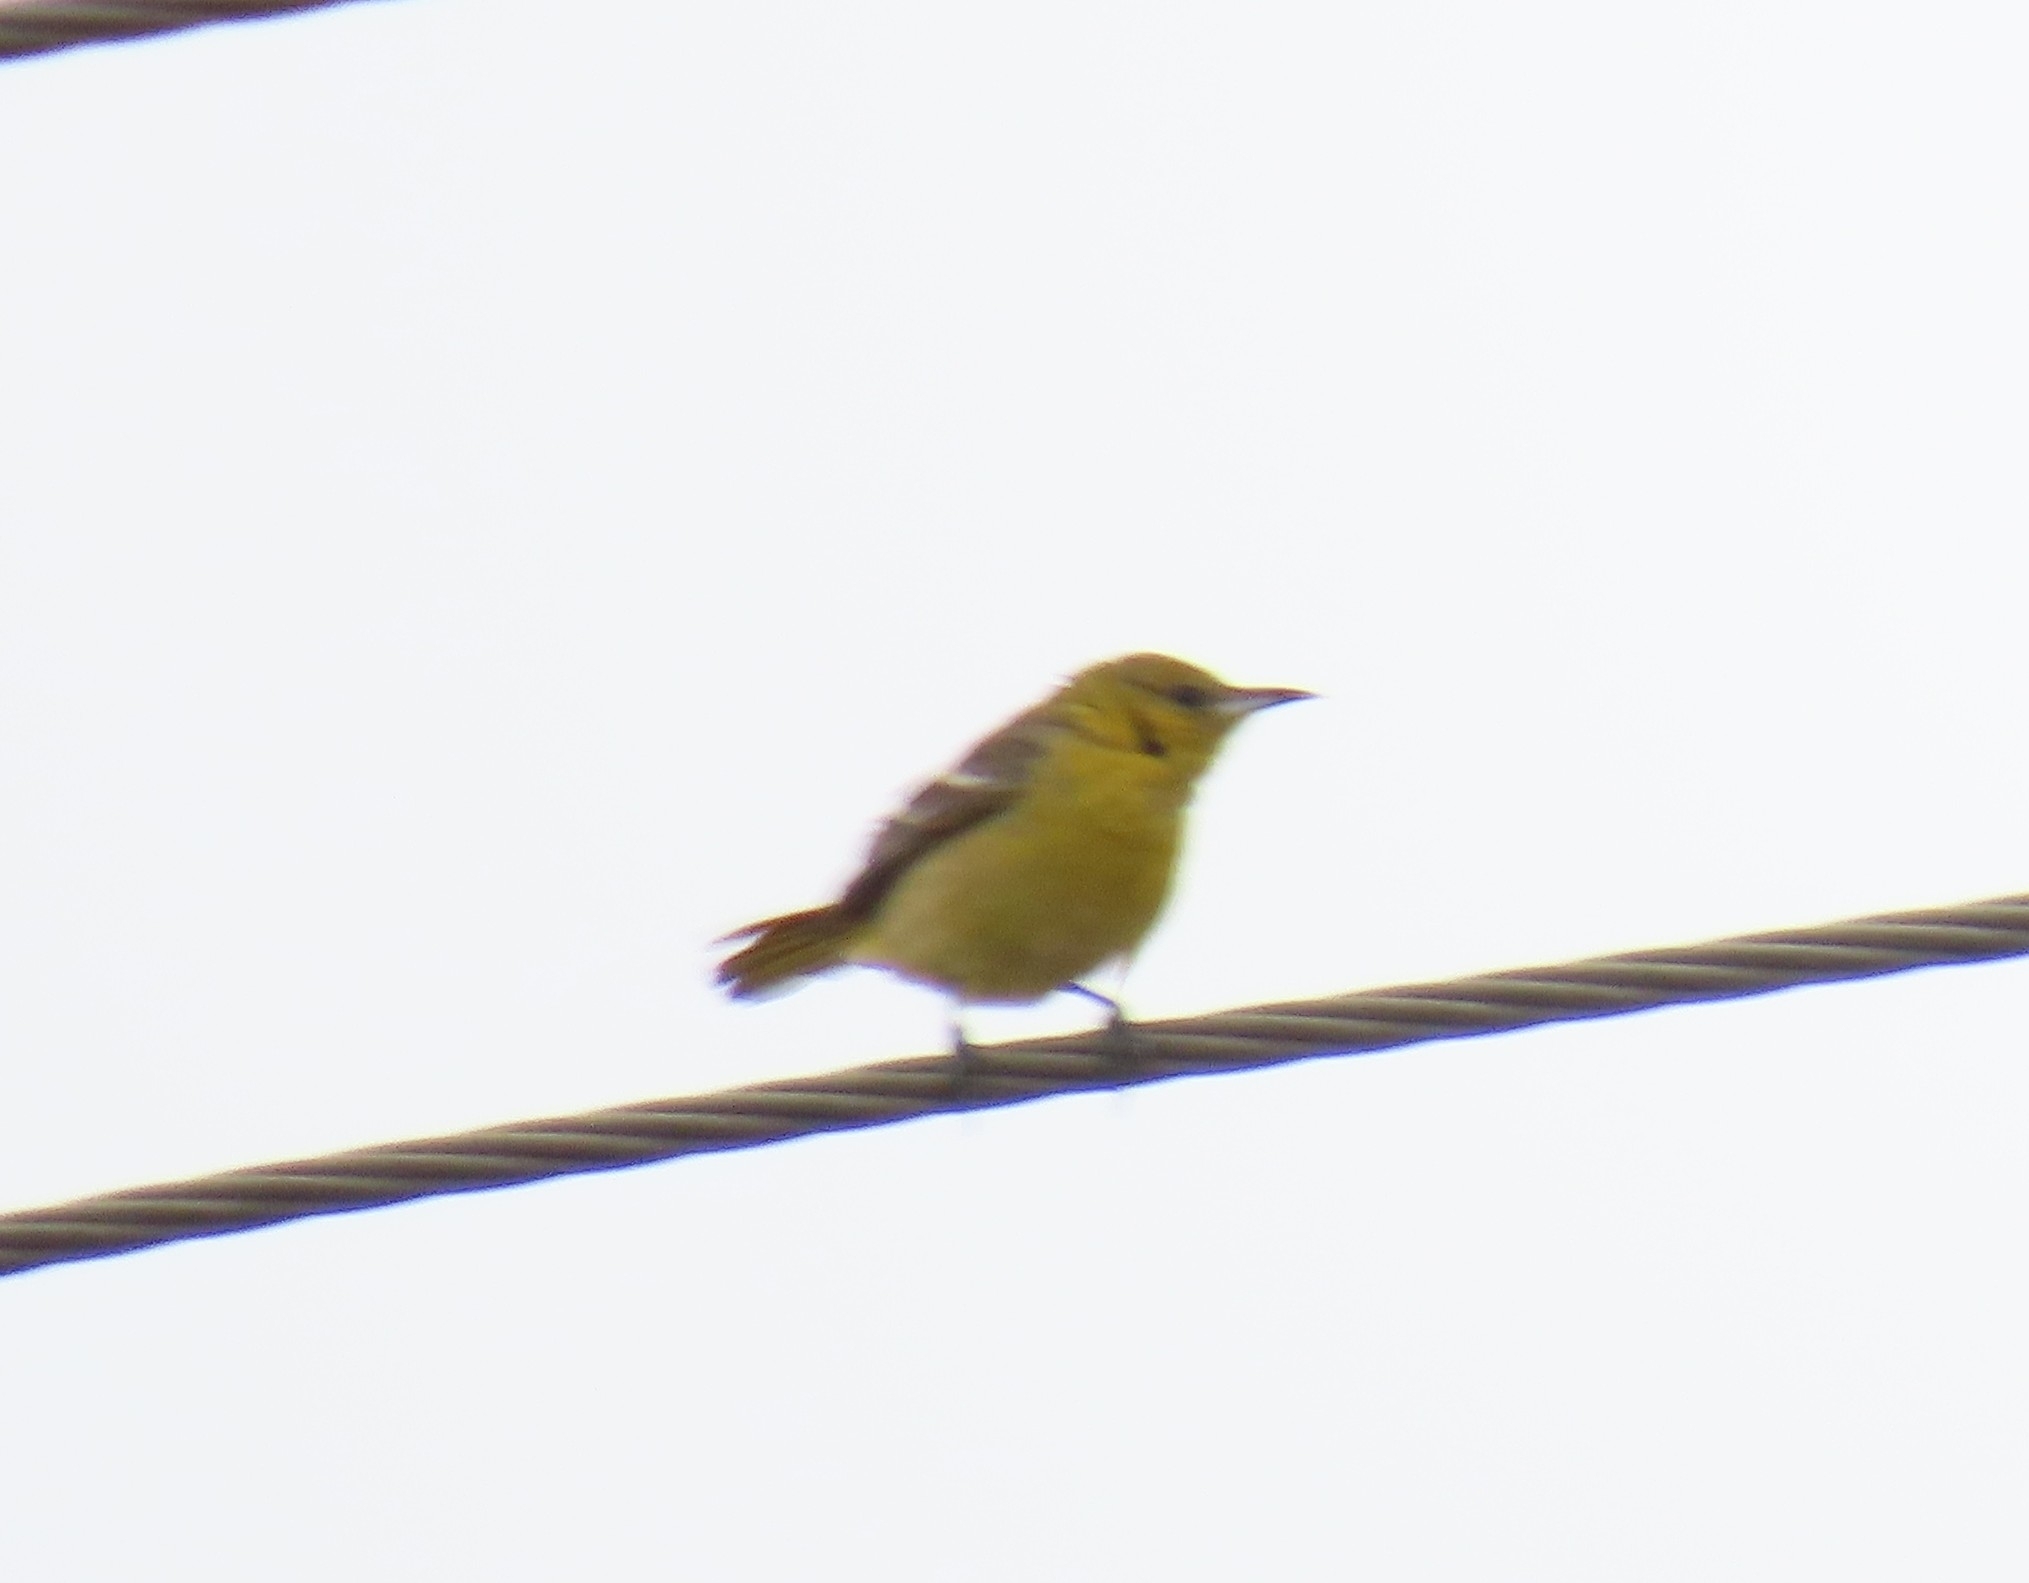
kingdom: Animalia
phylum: Chordata
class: Aves
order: Passeriformes
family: Icteridae
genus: Icterus
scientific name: Icterus cucullatus
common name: Hooded oriole
